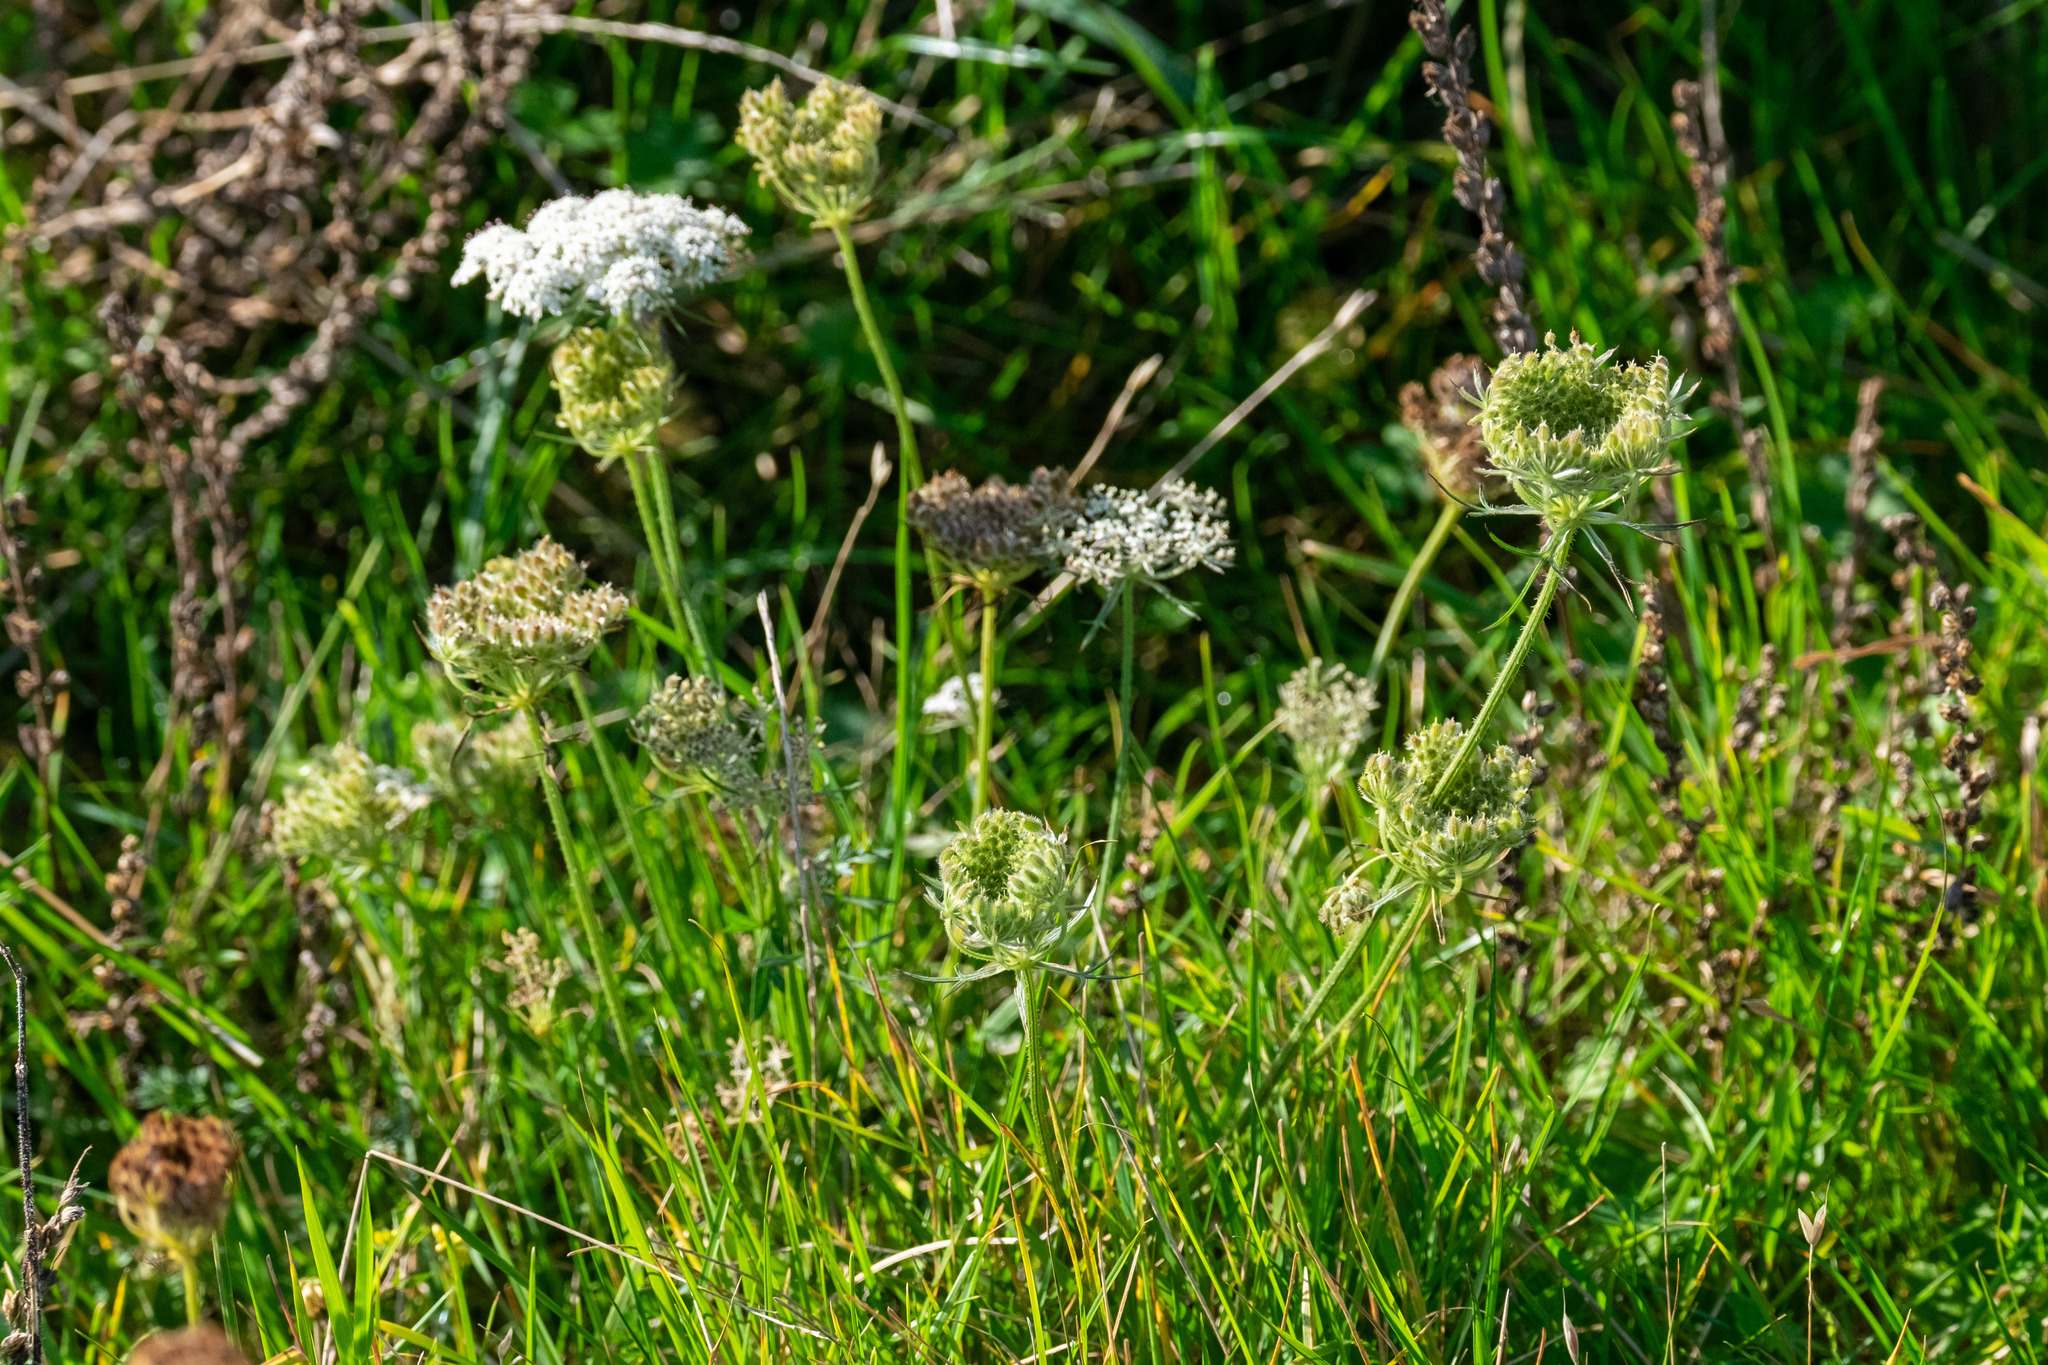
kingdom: Plantae
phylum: Tracheophyta
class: Magnoliopsida
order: Apiales
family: Apiaceae
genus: Daucus
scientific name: Daucus carota
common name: Wild carrot
